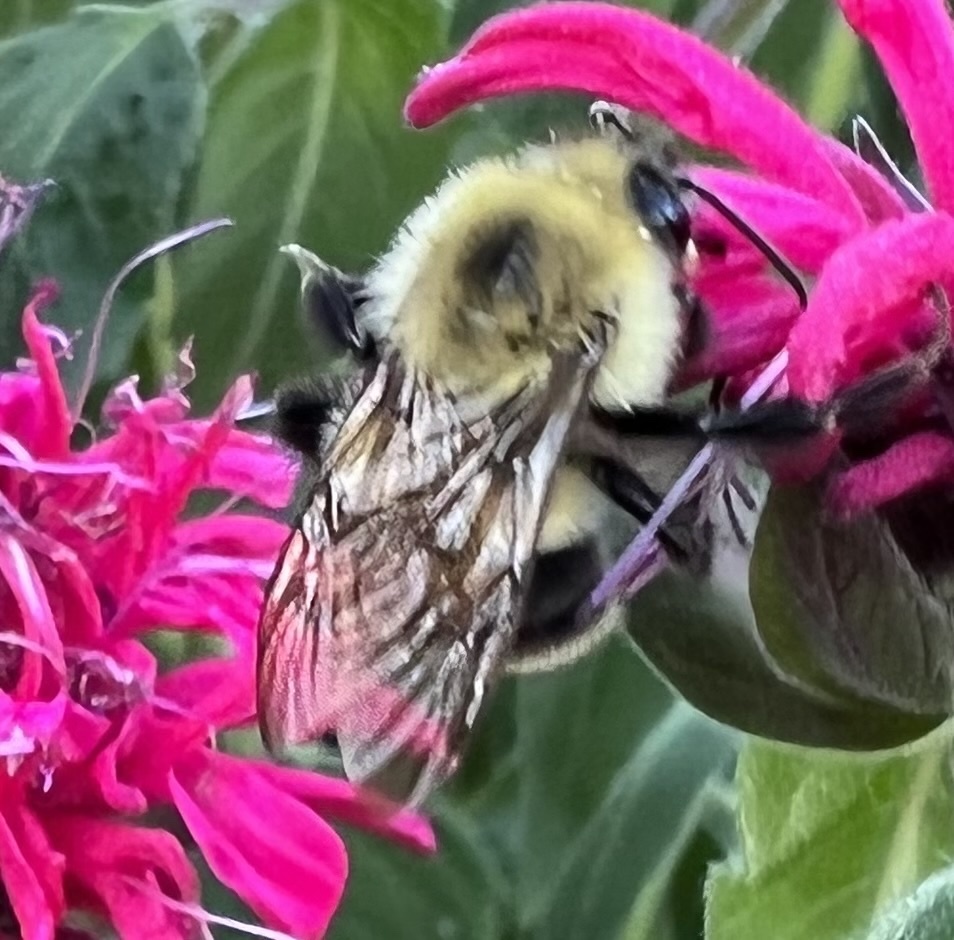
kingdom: Animalia
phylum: Arthropoda
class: Insecta
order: Hymenoptera
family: Apidae
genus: Bombus
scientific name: Bombus bimaculatus
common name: Two-spotted bumble bee
